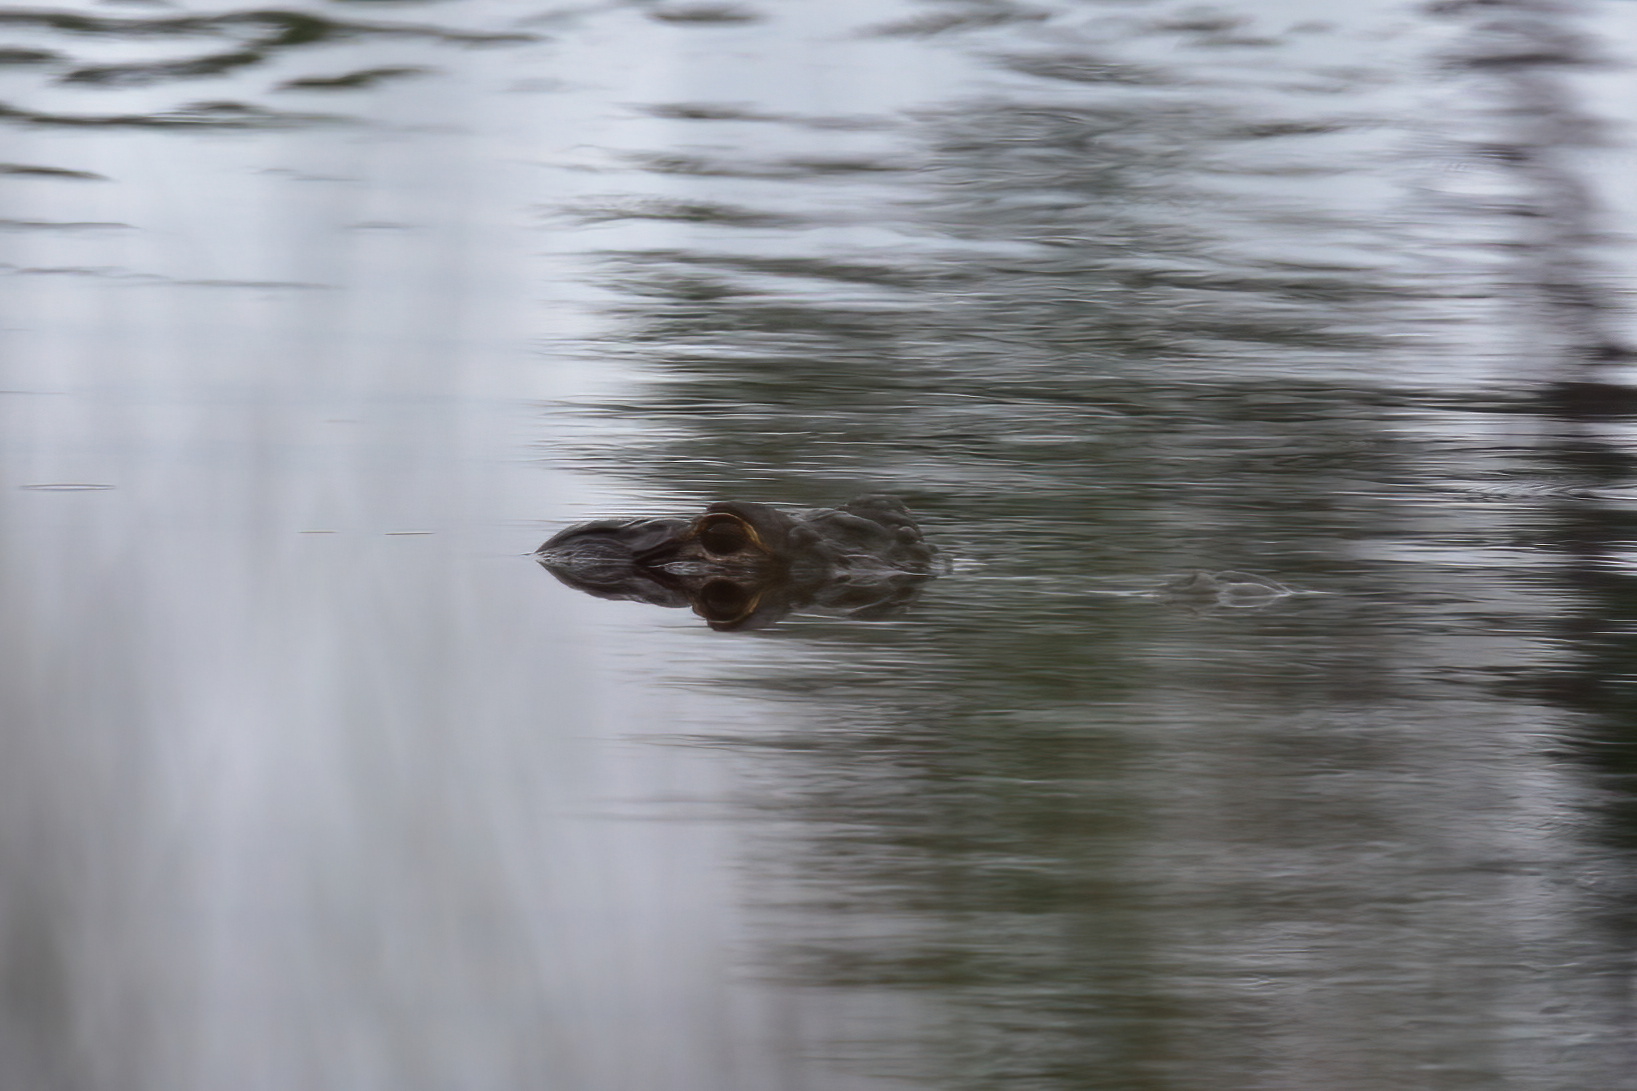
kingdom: Animalia
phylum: Chordata
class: Crocodylia
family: Alligatoridae
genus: Alligator
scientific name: Alligator mississippiensis
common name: American alligator
